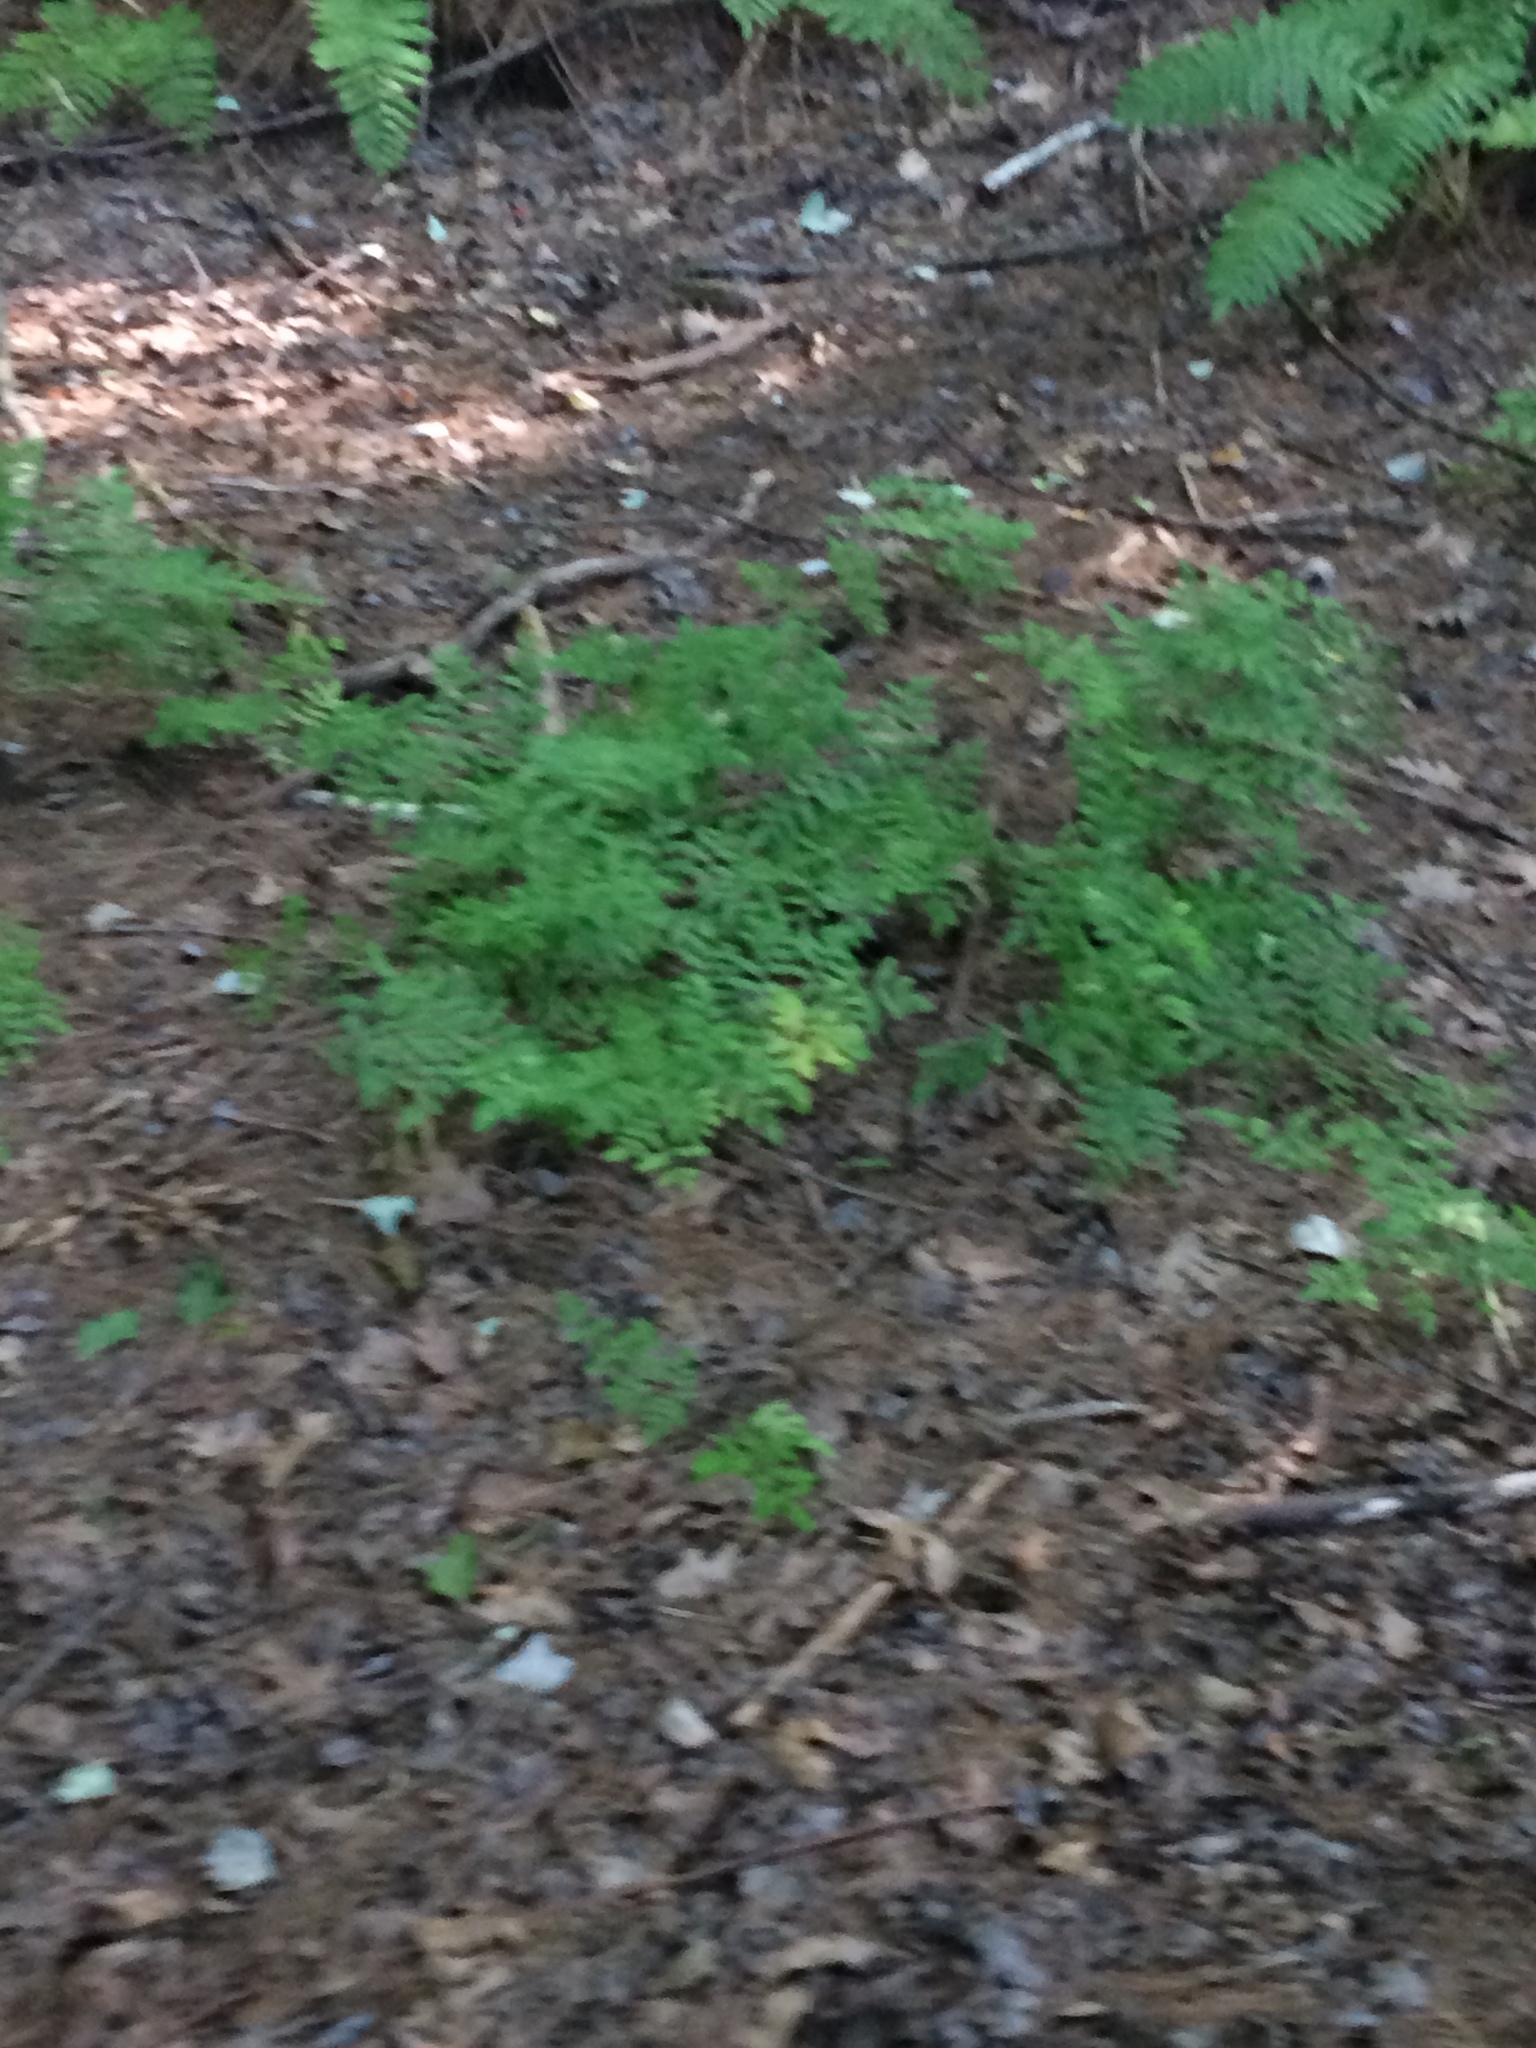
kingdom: Plantae
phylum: Tracheophyta
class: Polypodiopsida
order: Osmundales
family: Osmundaceae
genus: Osmunda
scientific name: Osmunda spectabilis
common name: American royal fern
